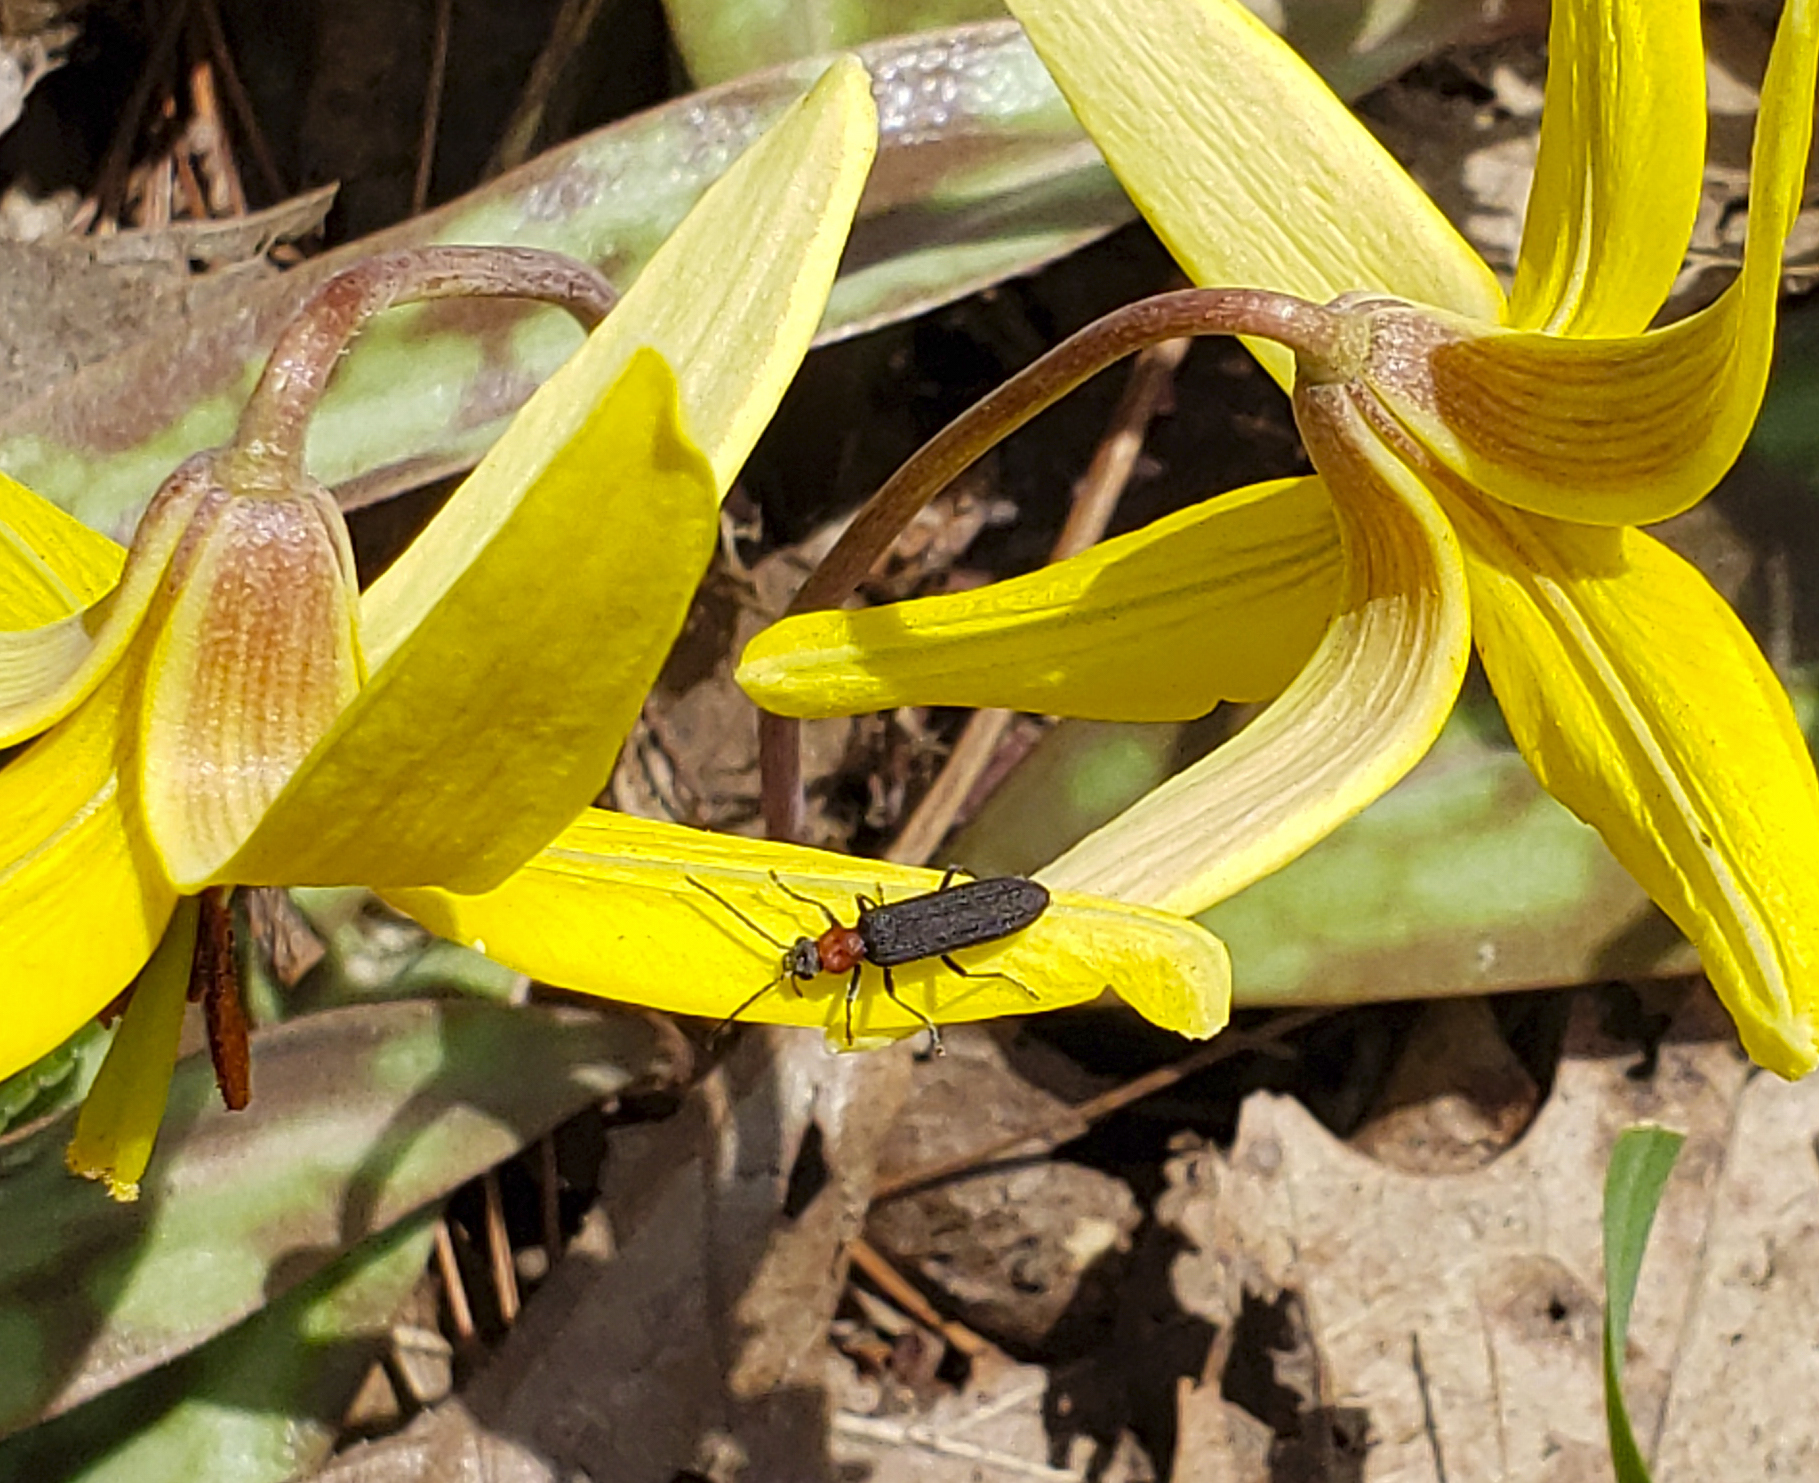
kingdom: Animalia
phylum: Arthropoda
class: Insecta
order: Coleoptera
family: Oedemeridae
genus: Ischnomera
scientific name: Ischnomera
